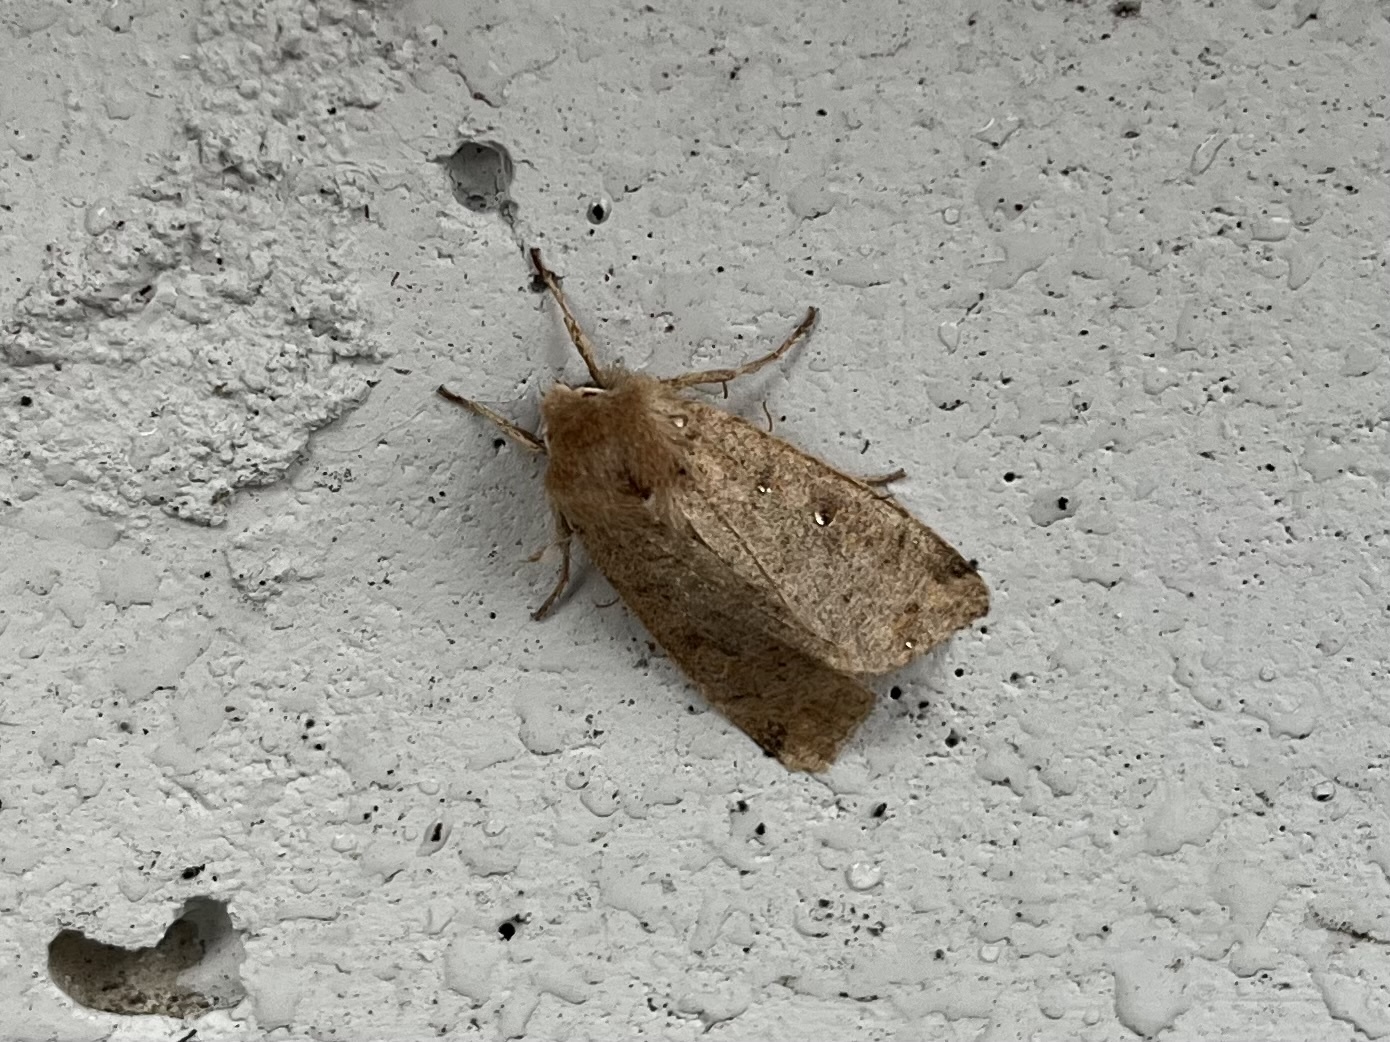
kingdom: Animalia
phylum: Arthropoda
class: Insecta
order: Lepidoptera
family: Noctuidae
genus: Orthosia
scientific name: Orthosia incerta
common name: Clouded drab
